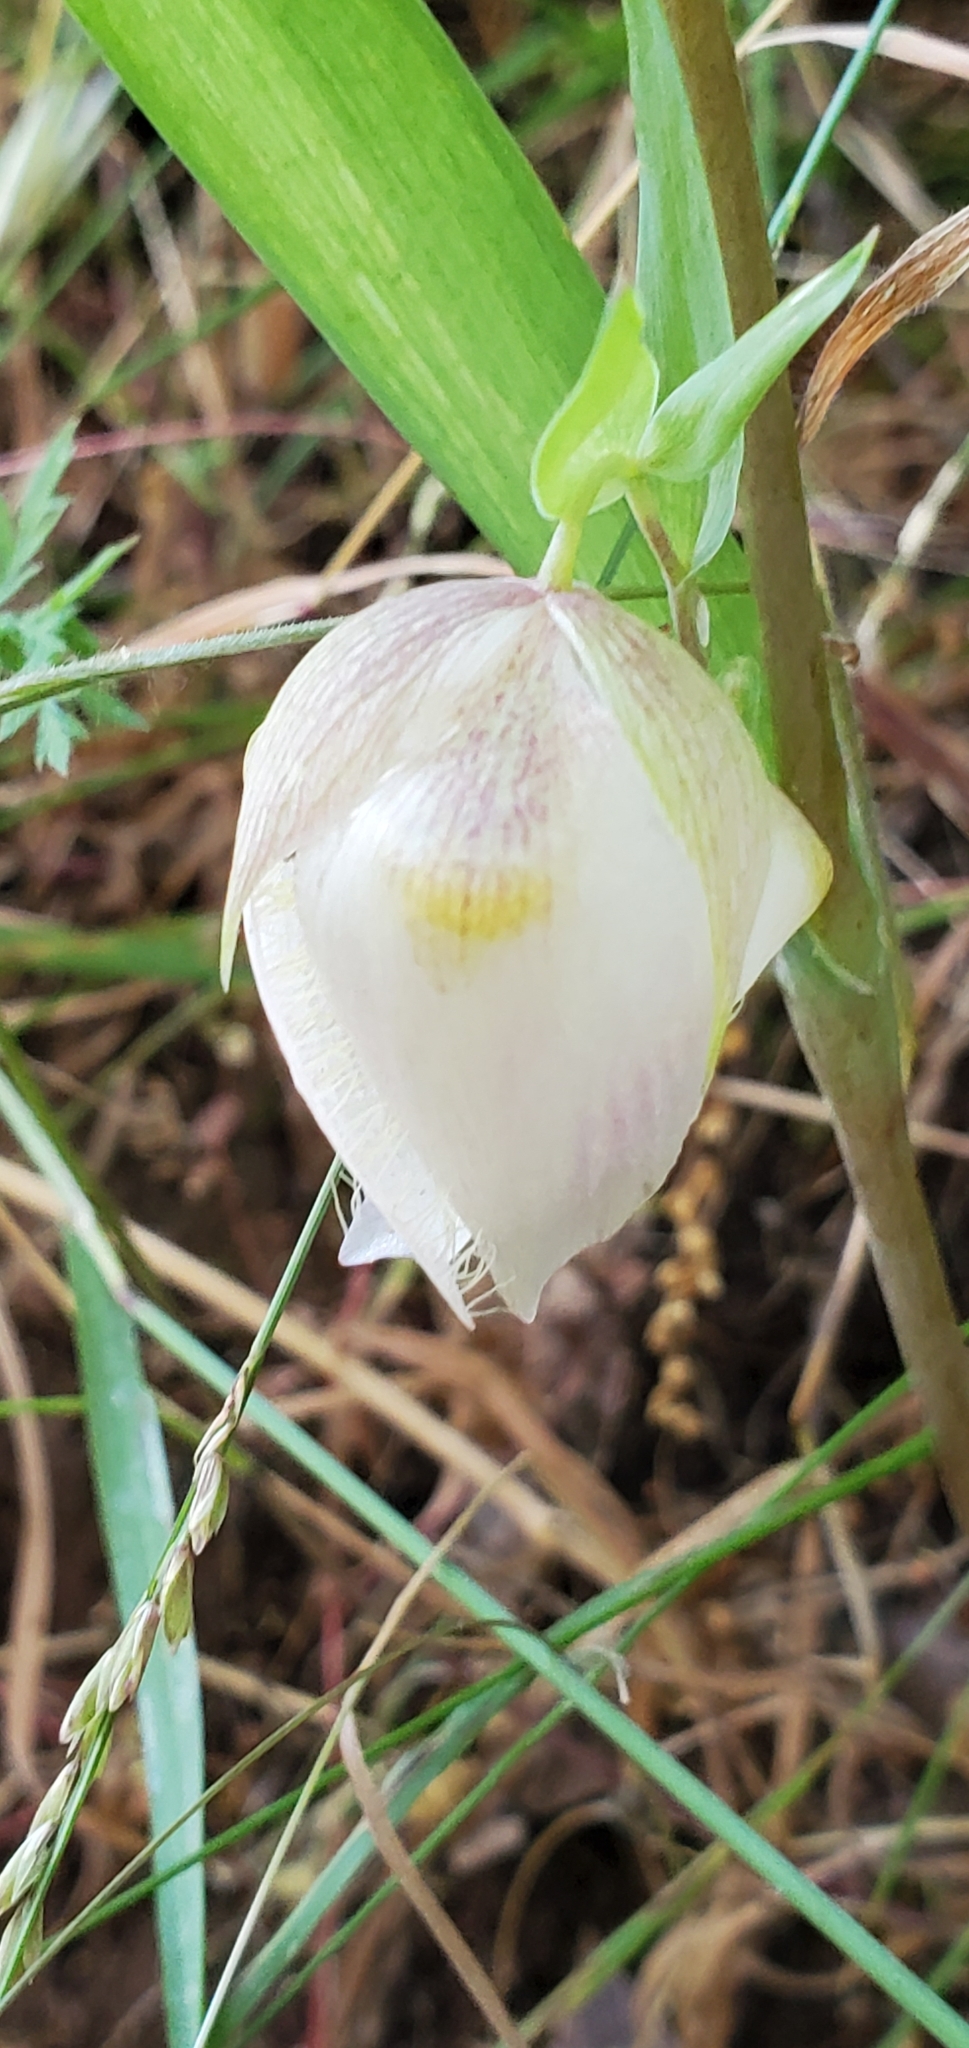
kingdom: Plantae
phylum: Tracheophyta
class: Liliopsida
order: Liliales
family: Liliaceae
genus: Calochortus
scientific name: Calochortus albus
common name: Fairy-lantern
